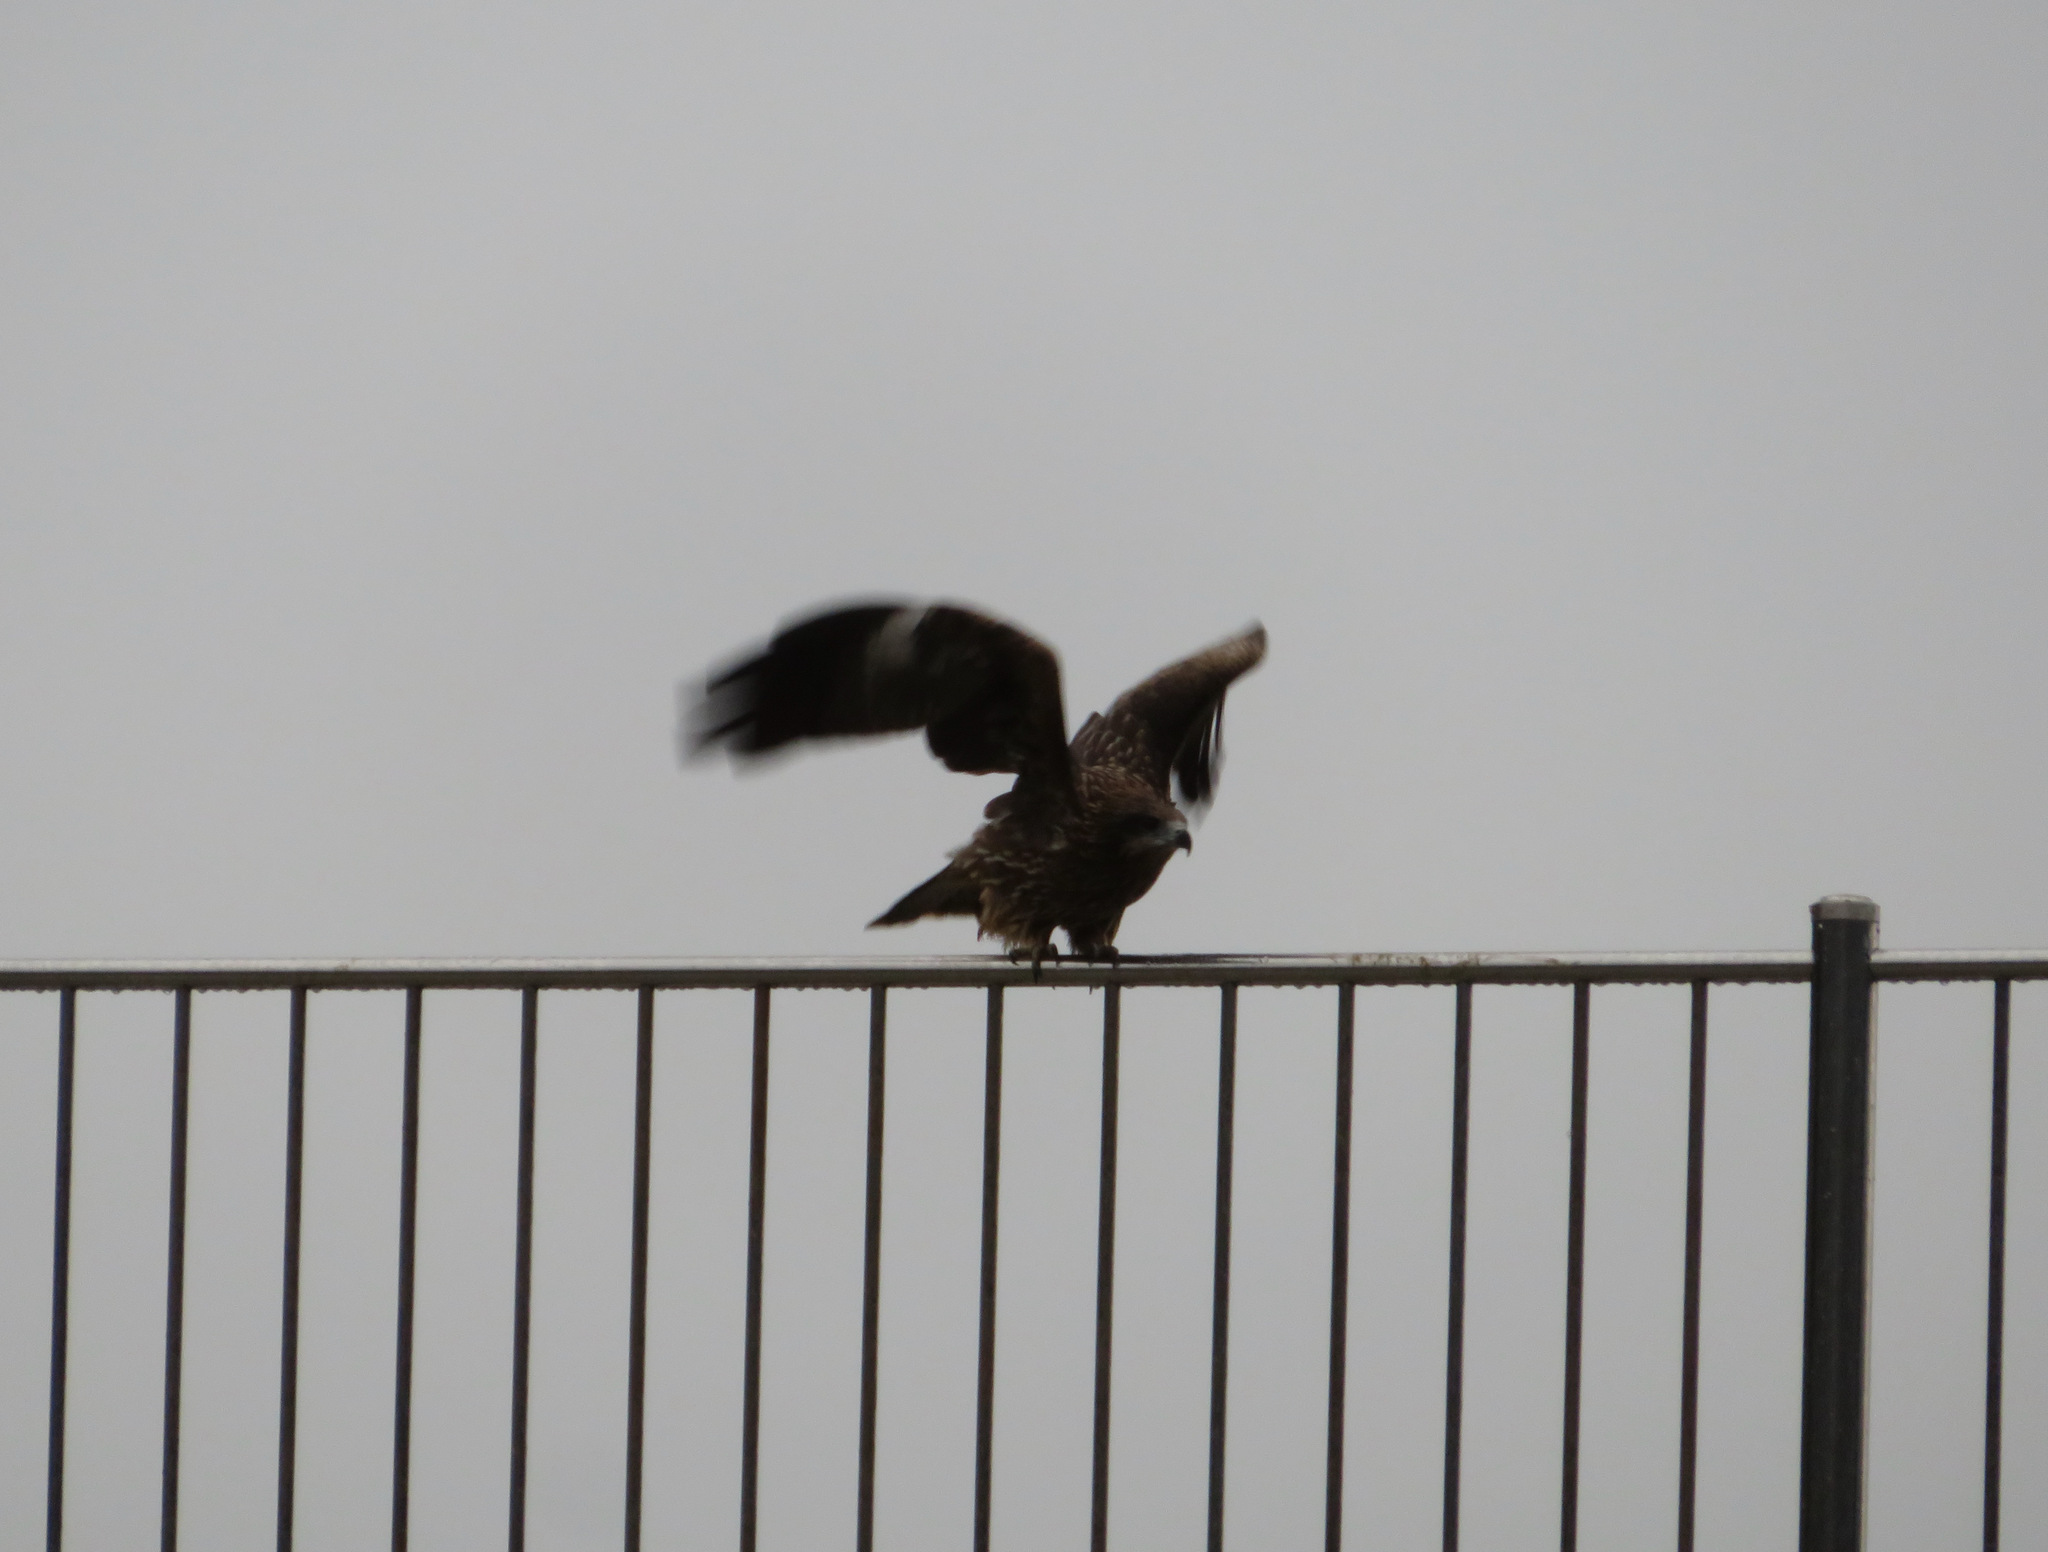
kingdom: Animalia
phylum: Chordata
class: Aves
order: Accipitriformes
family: Accipitridae
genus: Milvus
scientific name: Milvus migrans
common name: Black kite
